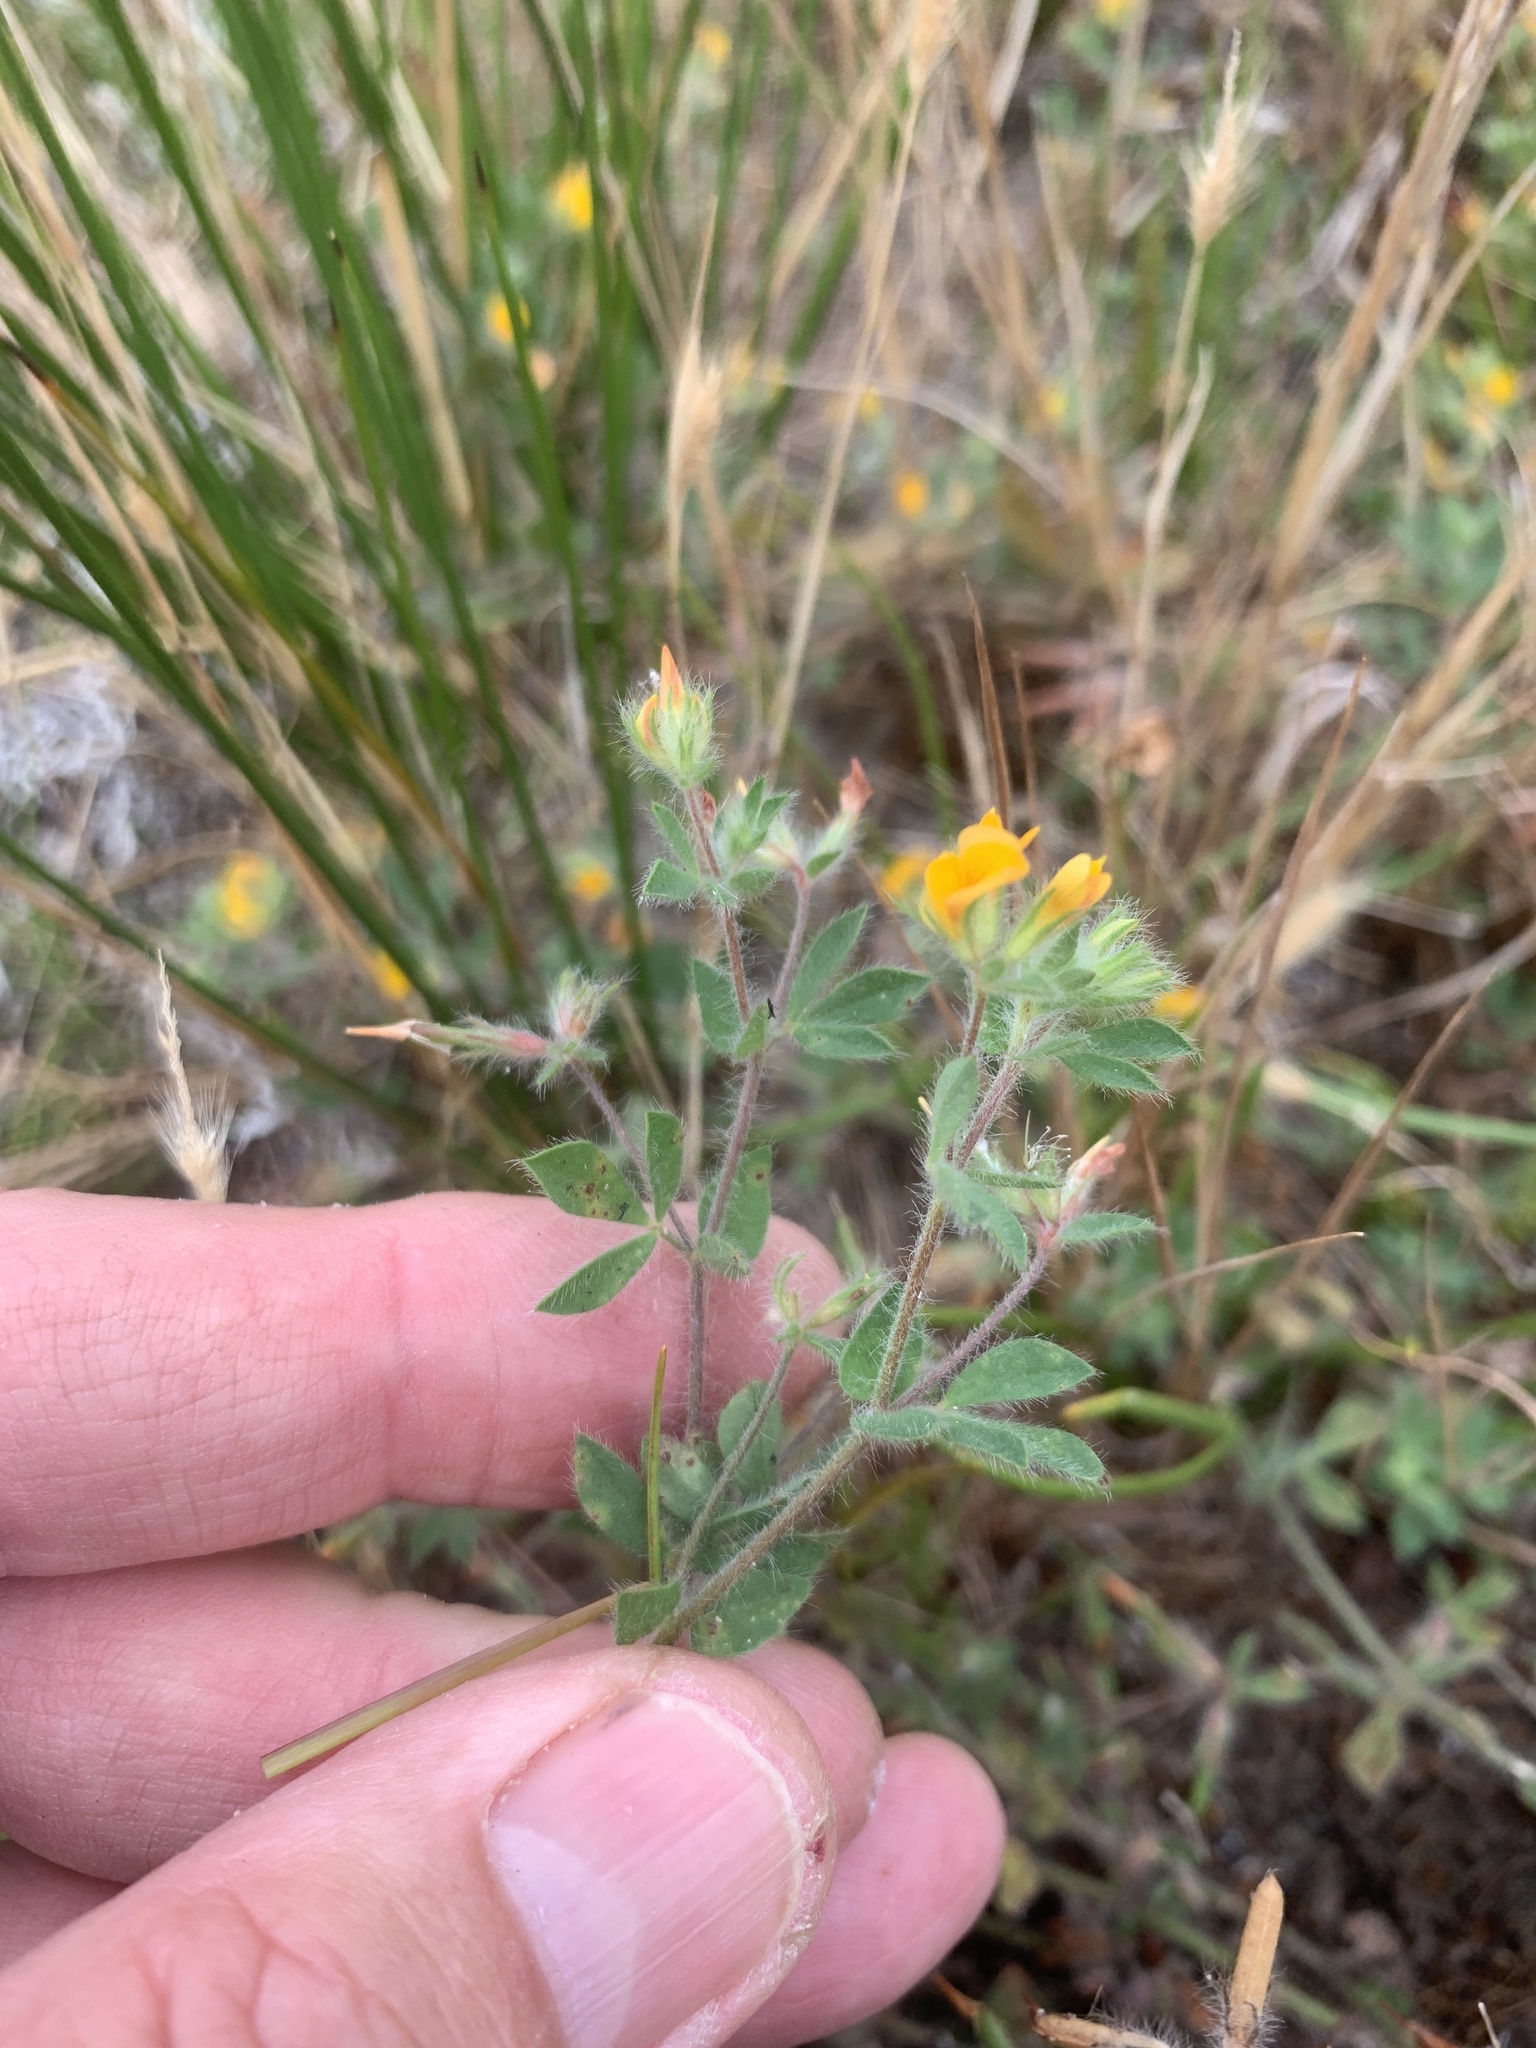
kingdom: Plantae
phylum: Tracheophyta
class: Magnoliopsida
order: Fabales
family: Fabaceae
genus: Lotus
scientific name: Lotus subbiflorus
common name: Hairy bird's-foot trefoil
